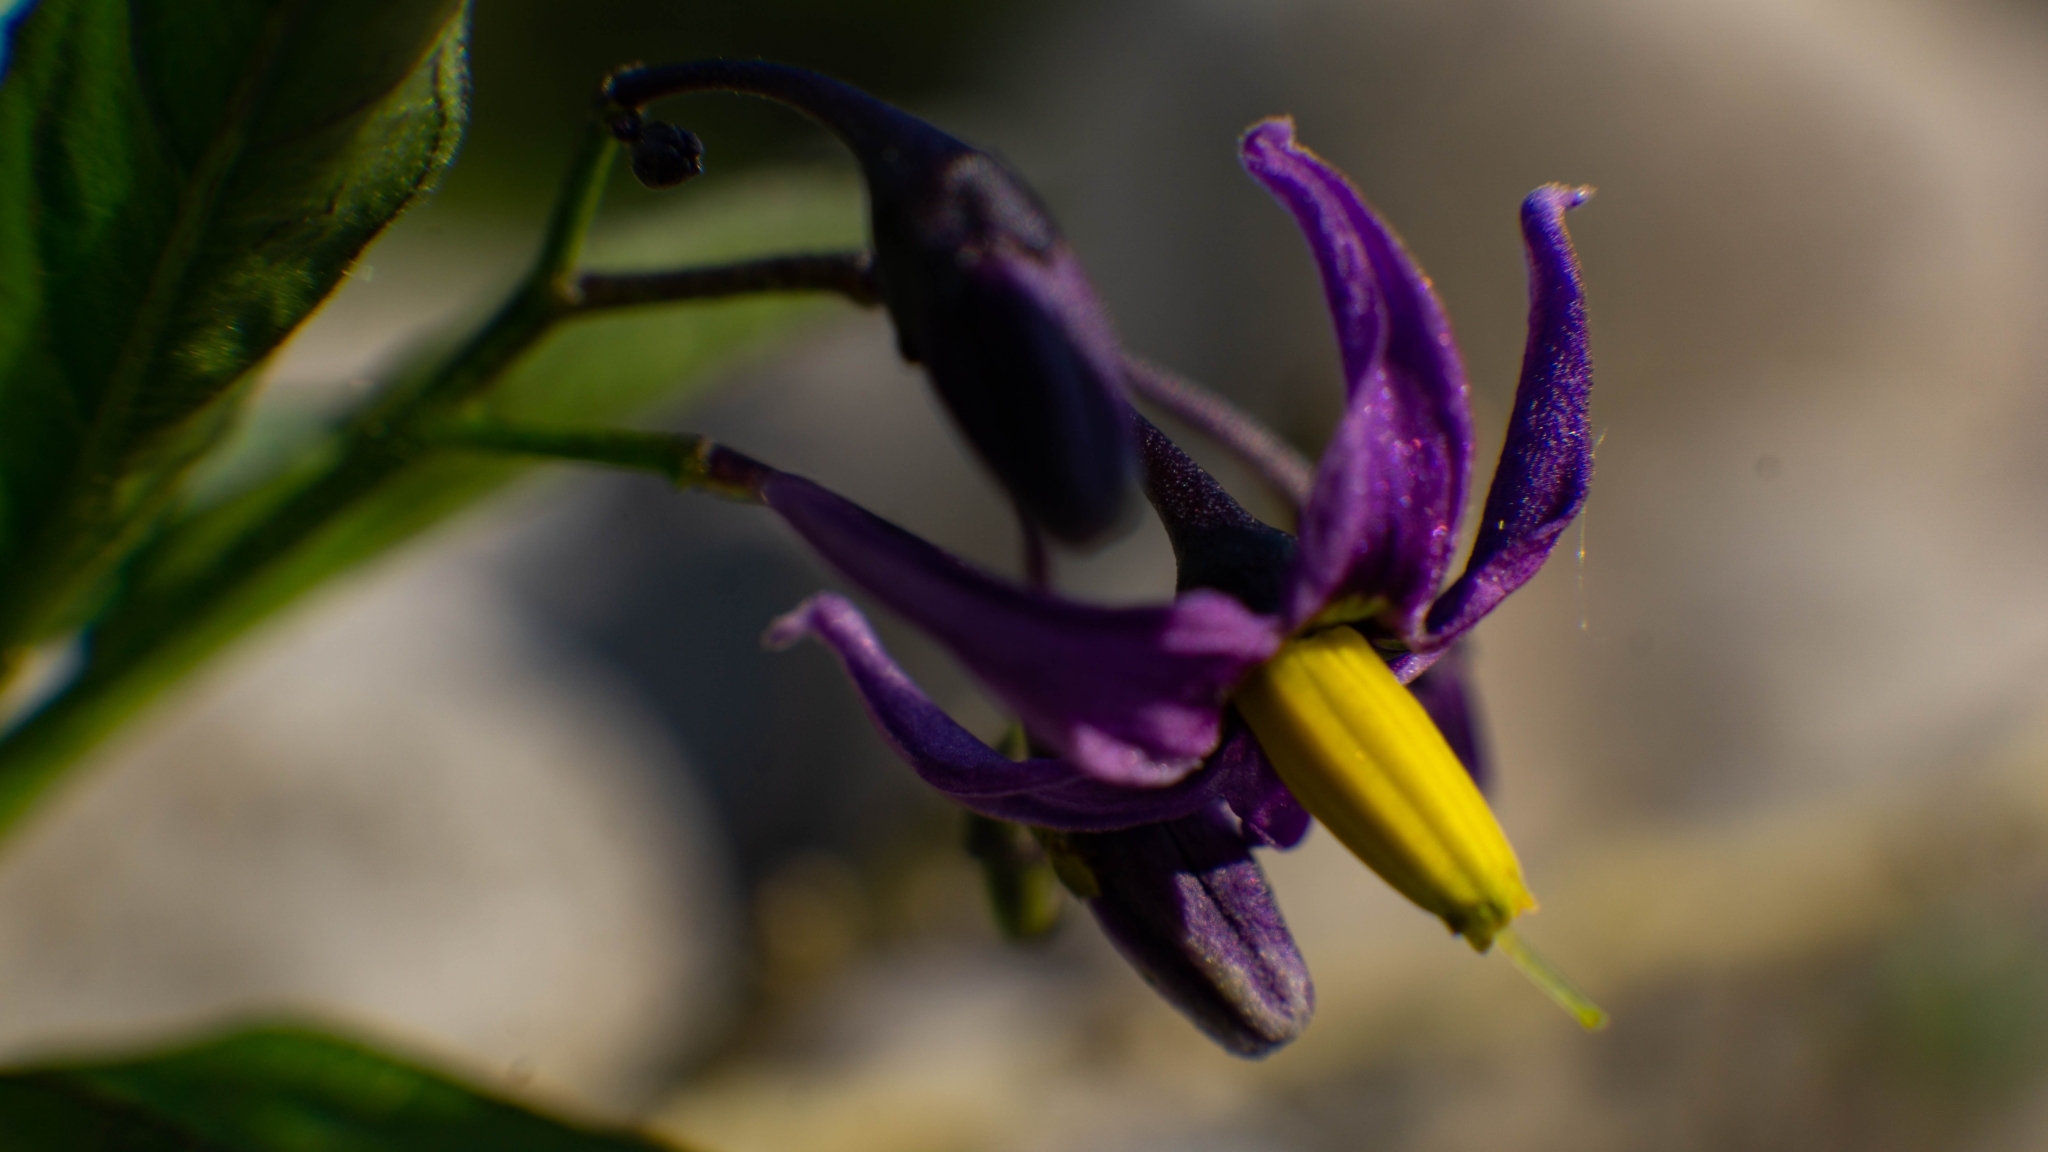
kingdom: Plantae
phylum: Tracheophyta
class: Magnoliopsida
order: Solanales
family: Solanaceae
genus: Solanum
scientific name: Solanum dulcamara
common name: Climbing nightshade
